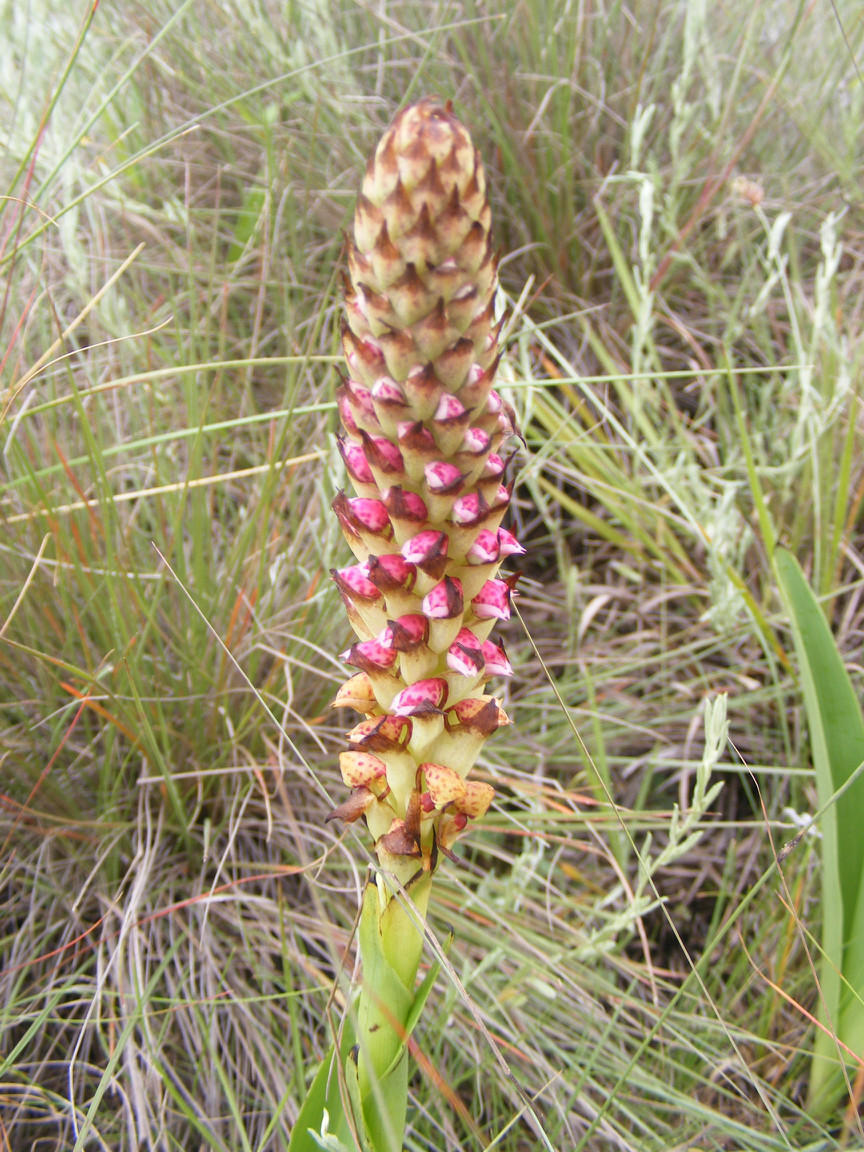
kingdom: Plantae
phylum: Tracheophyta
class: Liliopsida
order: Asparagales
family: Orchidaceae
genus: Disa
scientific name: Disa versicolor
